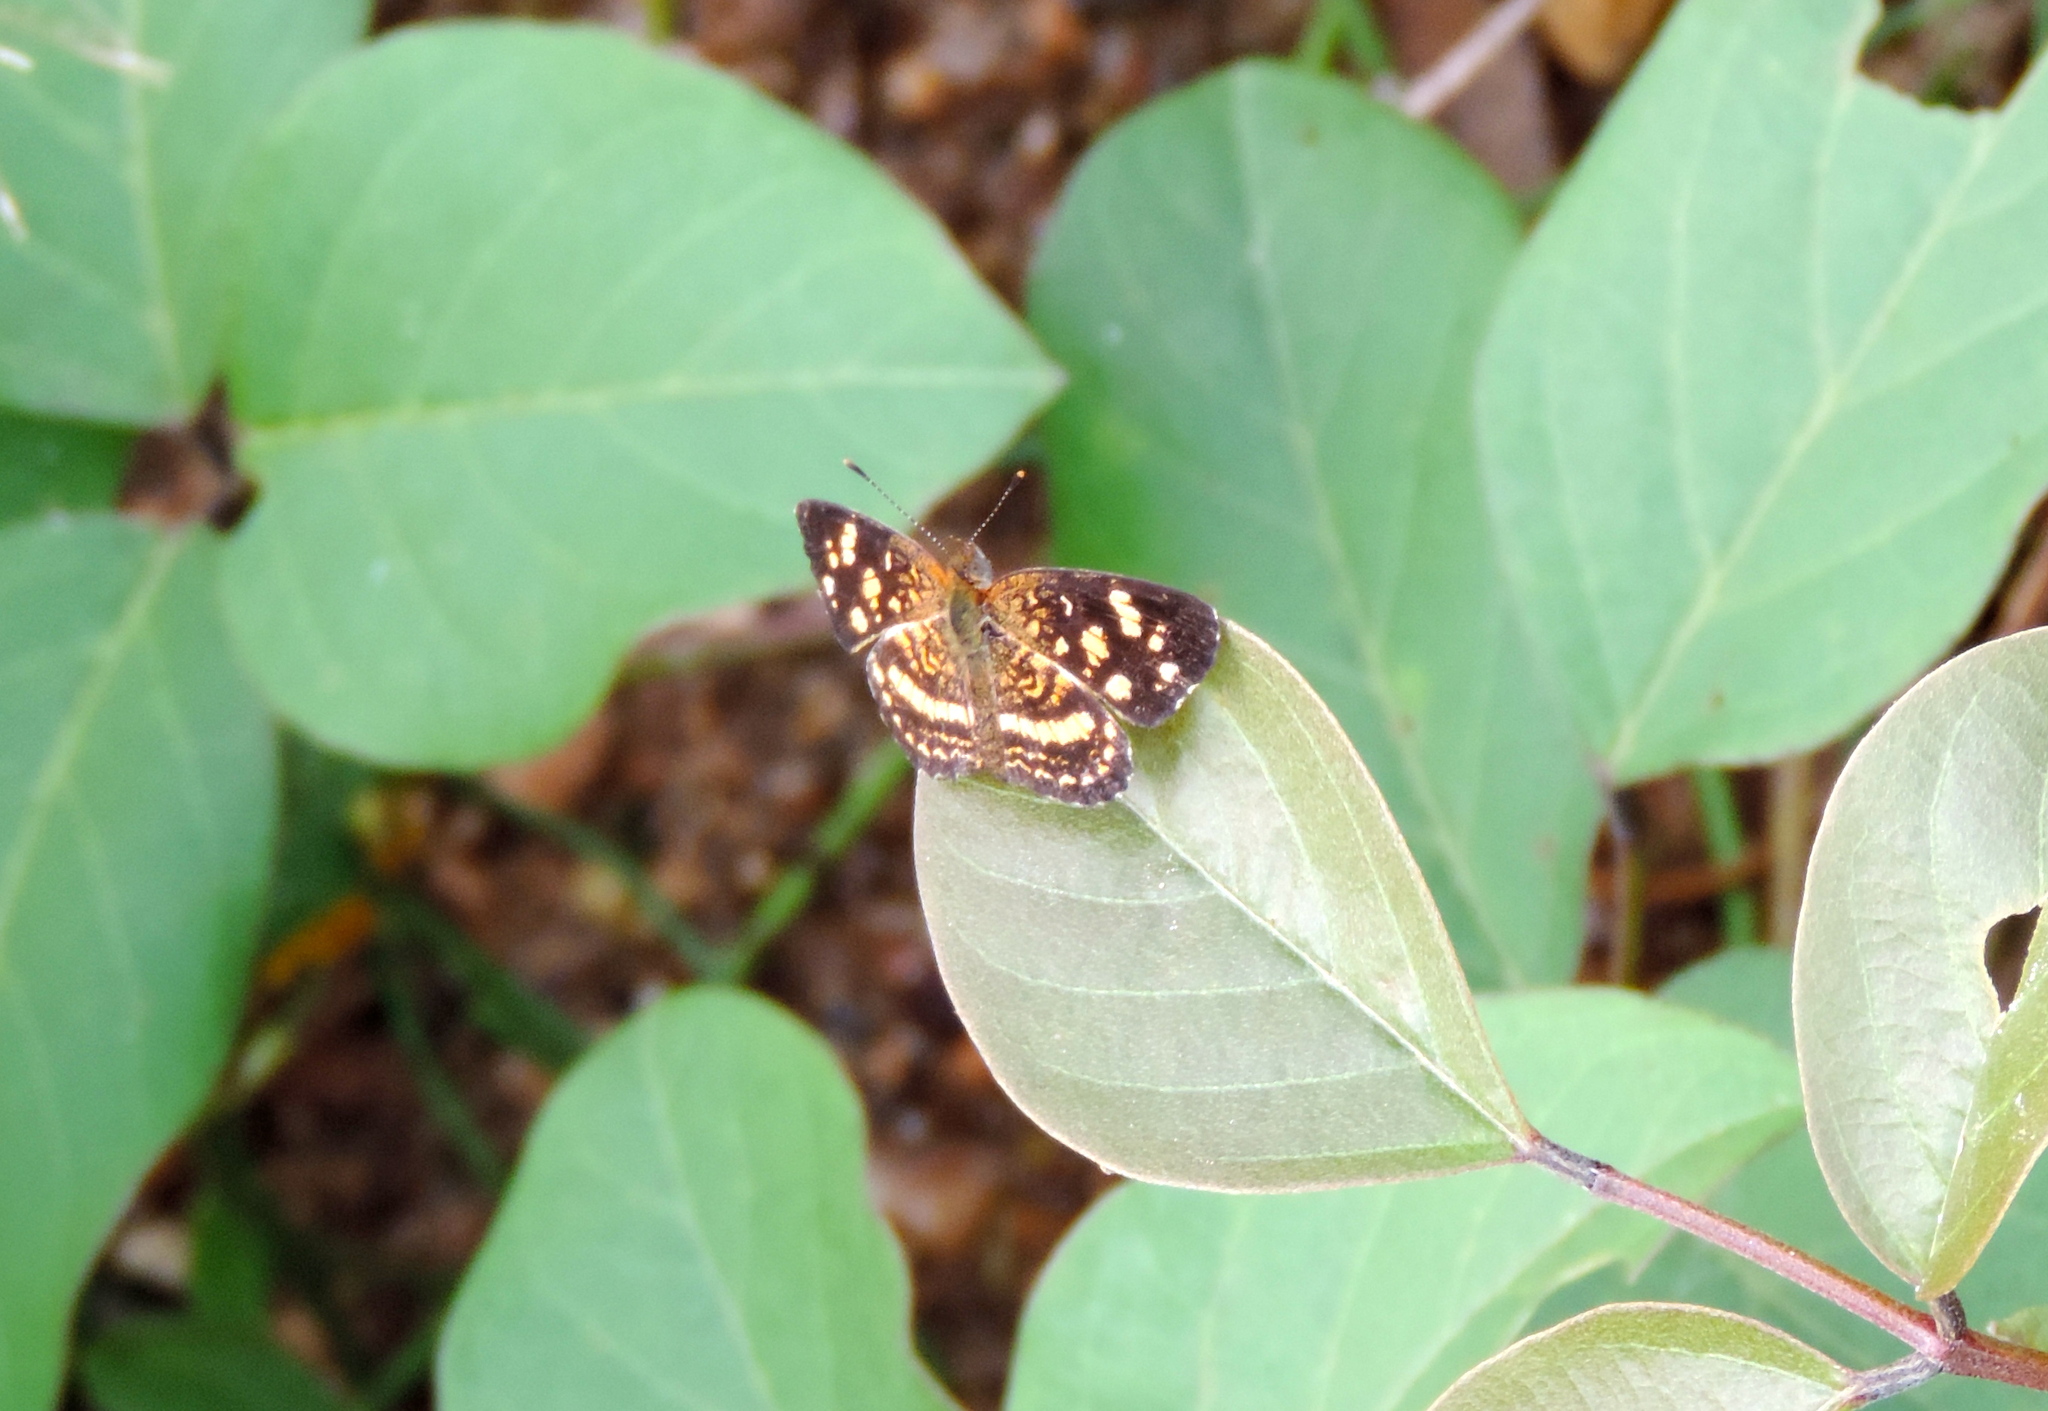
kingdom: Animalia
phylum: Arthropoda
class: Insecta
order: Lepidoptera
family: Nymphalidae
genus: Anthanassa
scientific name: Anthanassa tulcis
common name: Pale-banded crescent
